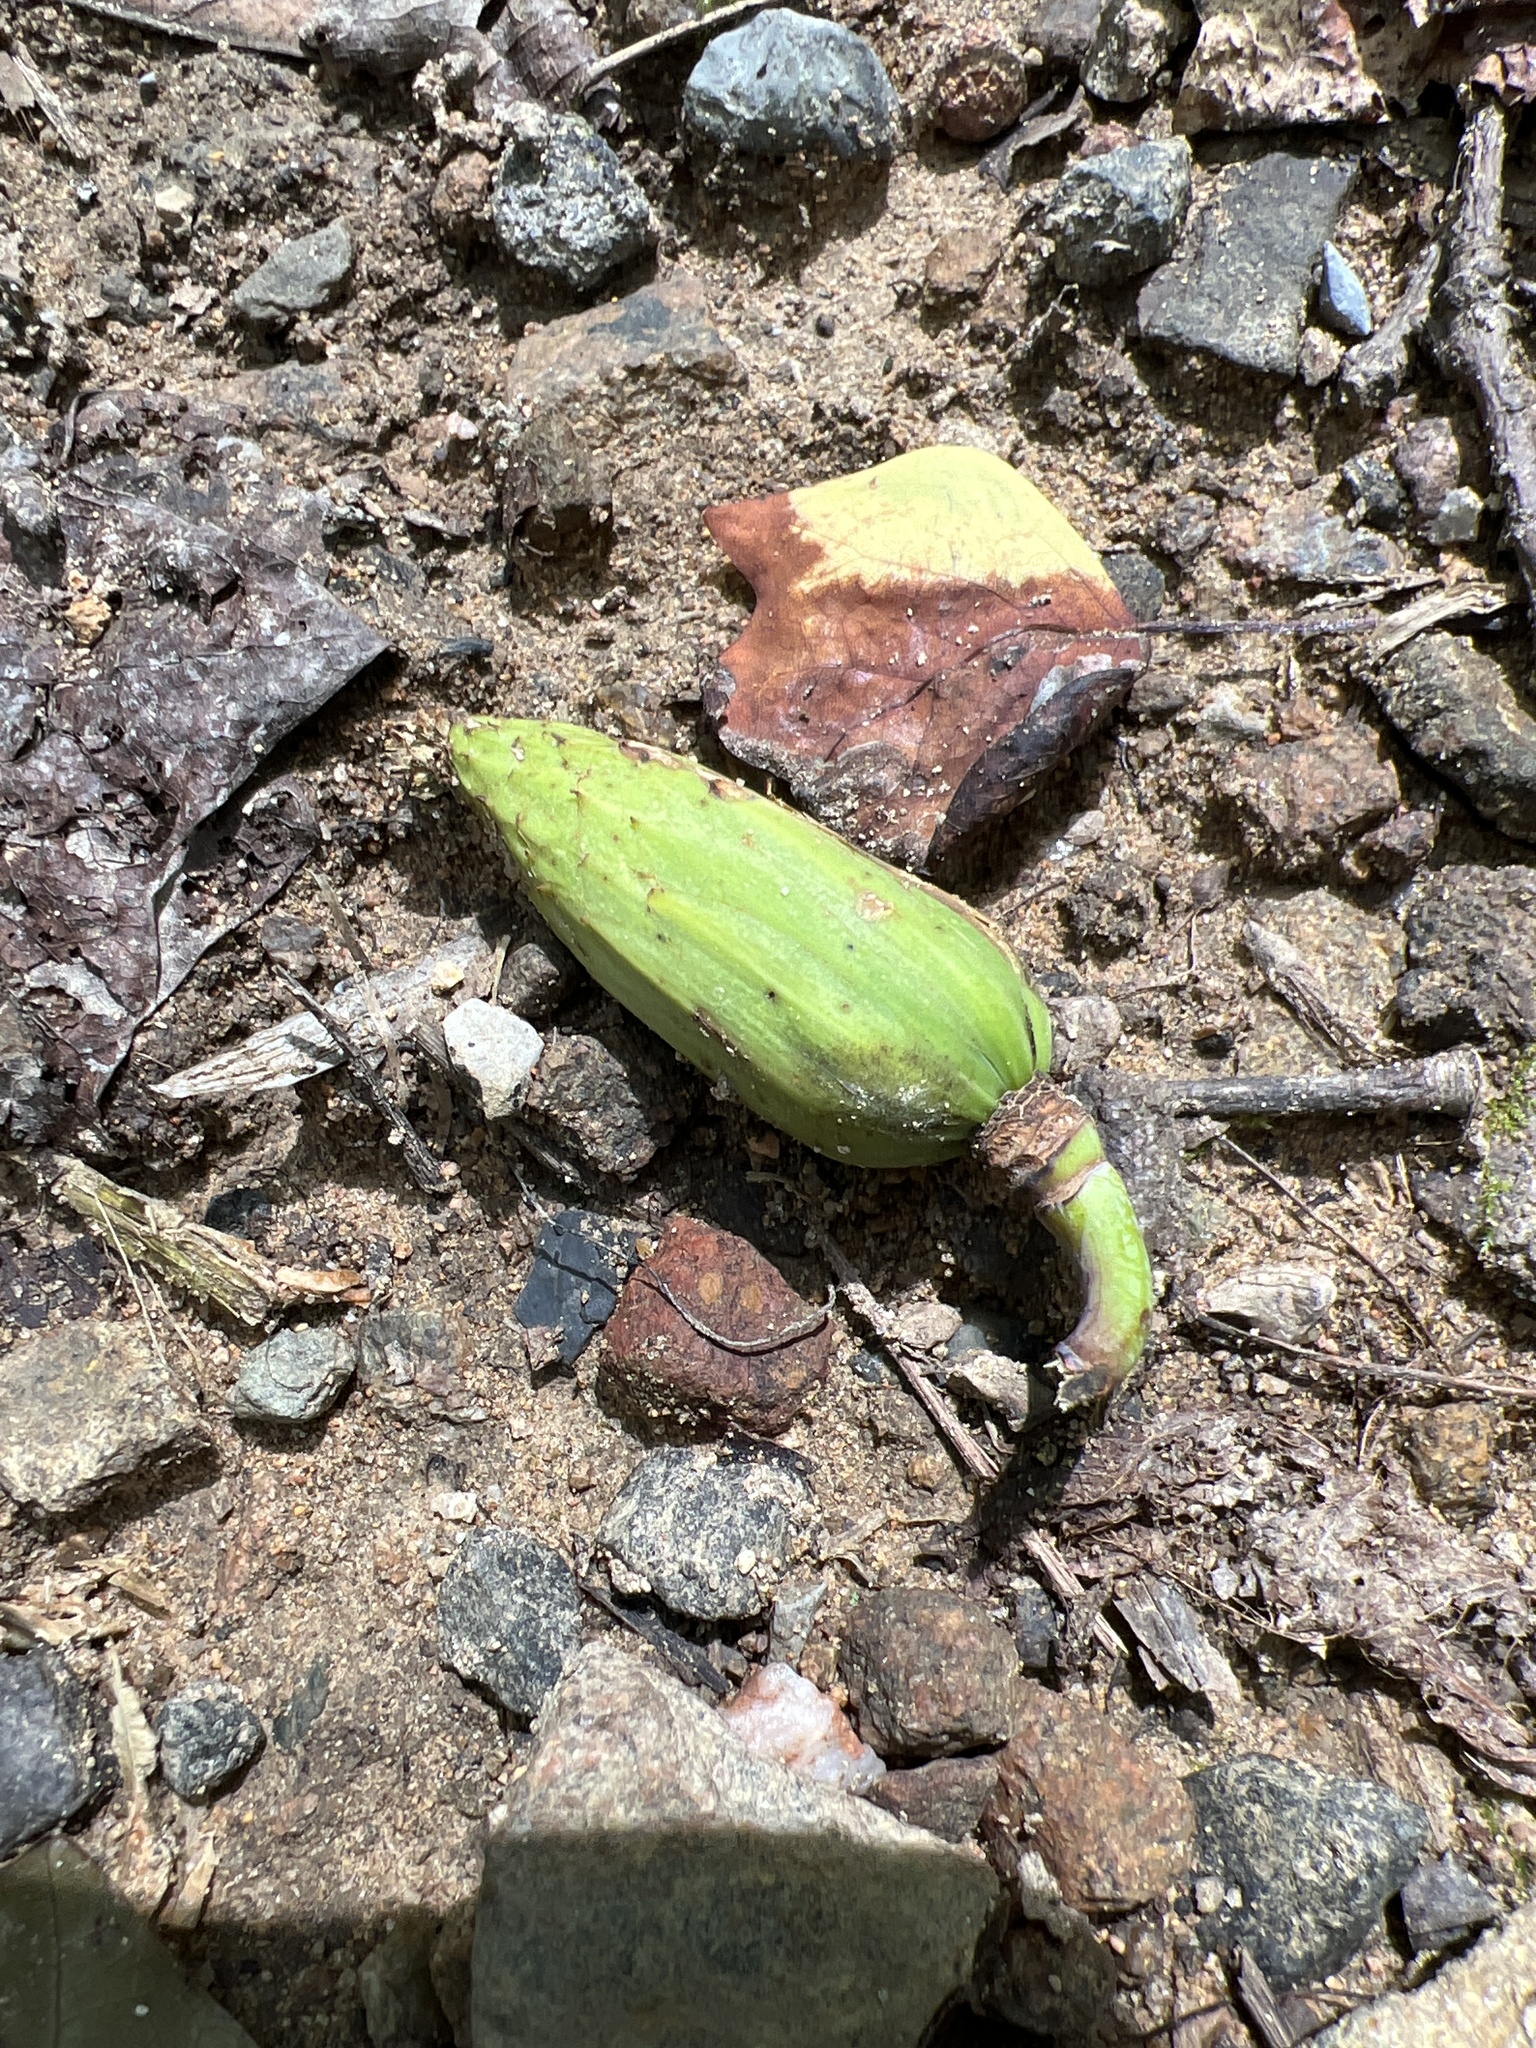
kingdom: Plantae
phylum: Tracheophyta
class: Magnoliopsida
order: Magnoliales
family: Magnoliaceae
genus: Liriodendron
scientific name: Liriodendron tulipifera
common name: Tulip tree
